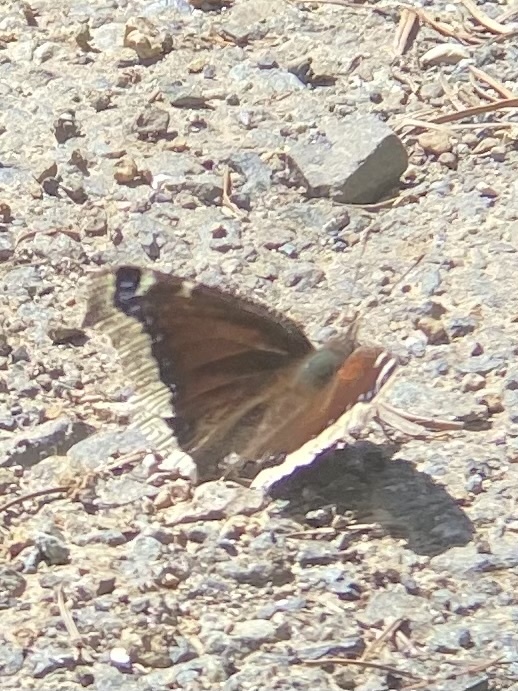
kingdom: Animalia
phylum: Arthropoda
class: Insecta
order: Lepidoptera
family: Nymphalidae
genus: Nymphalis
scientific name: Nymphalis antiopa
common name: Camberwell beauty
